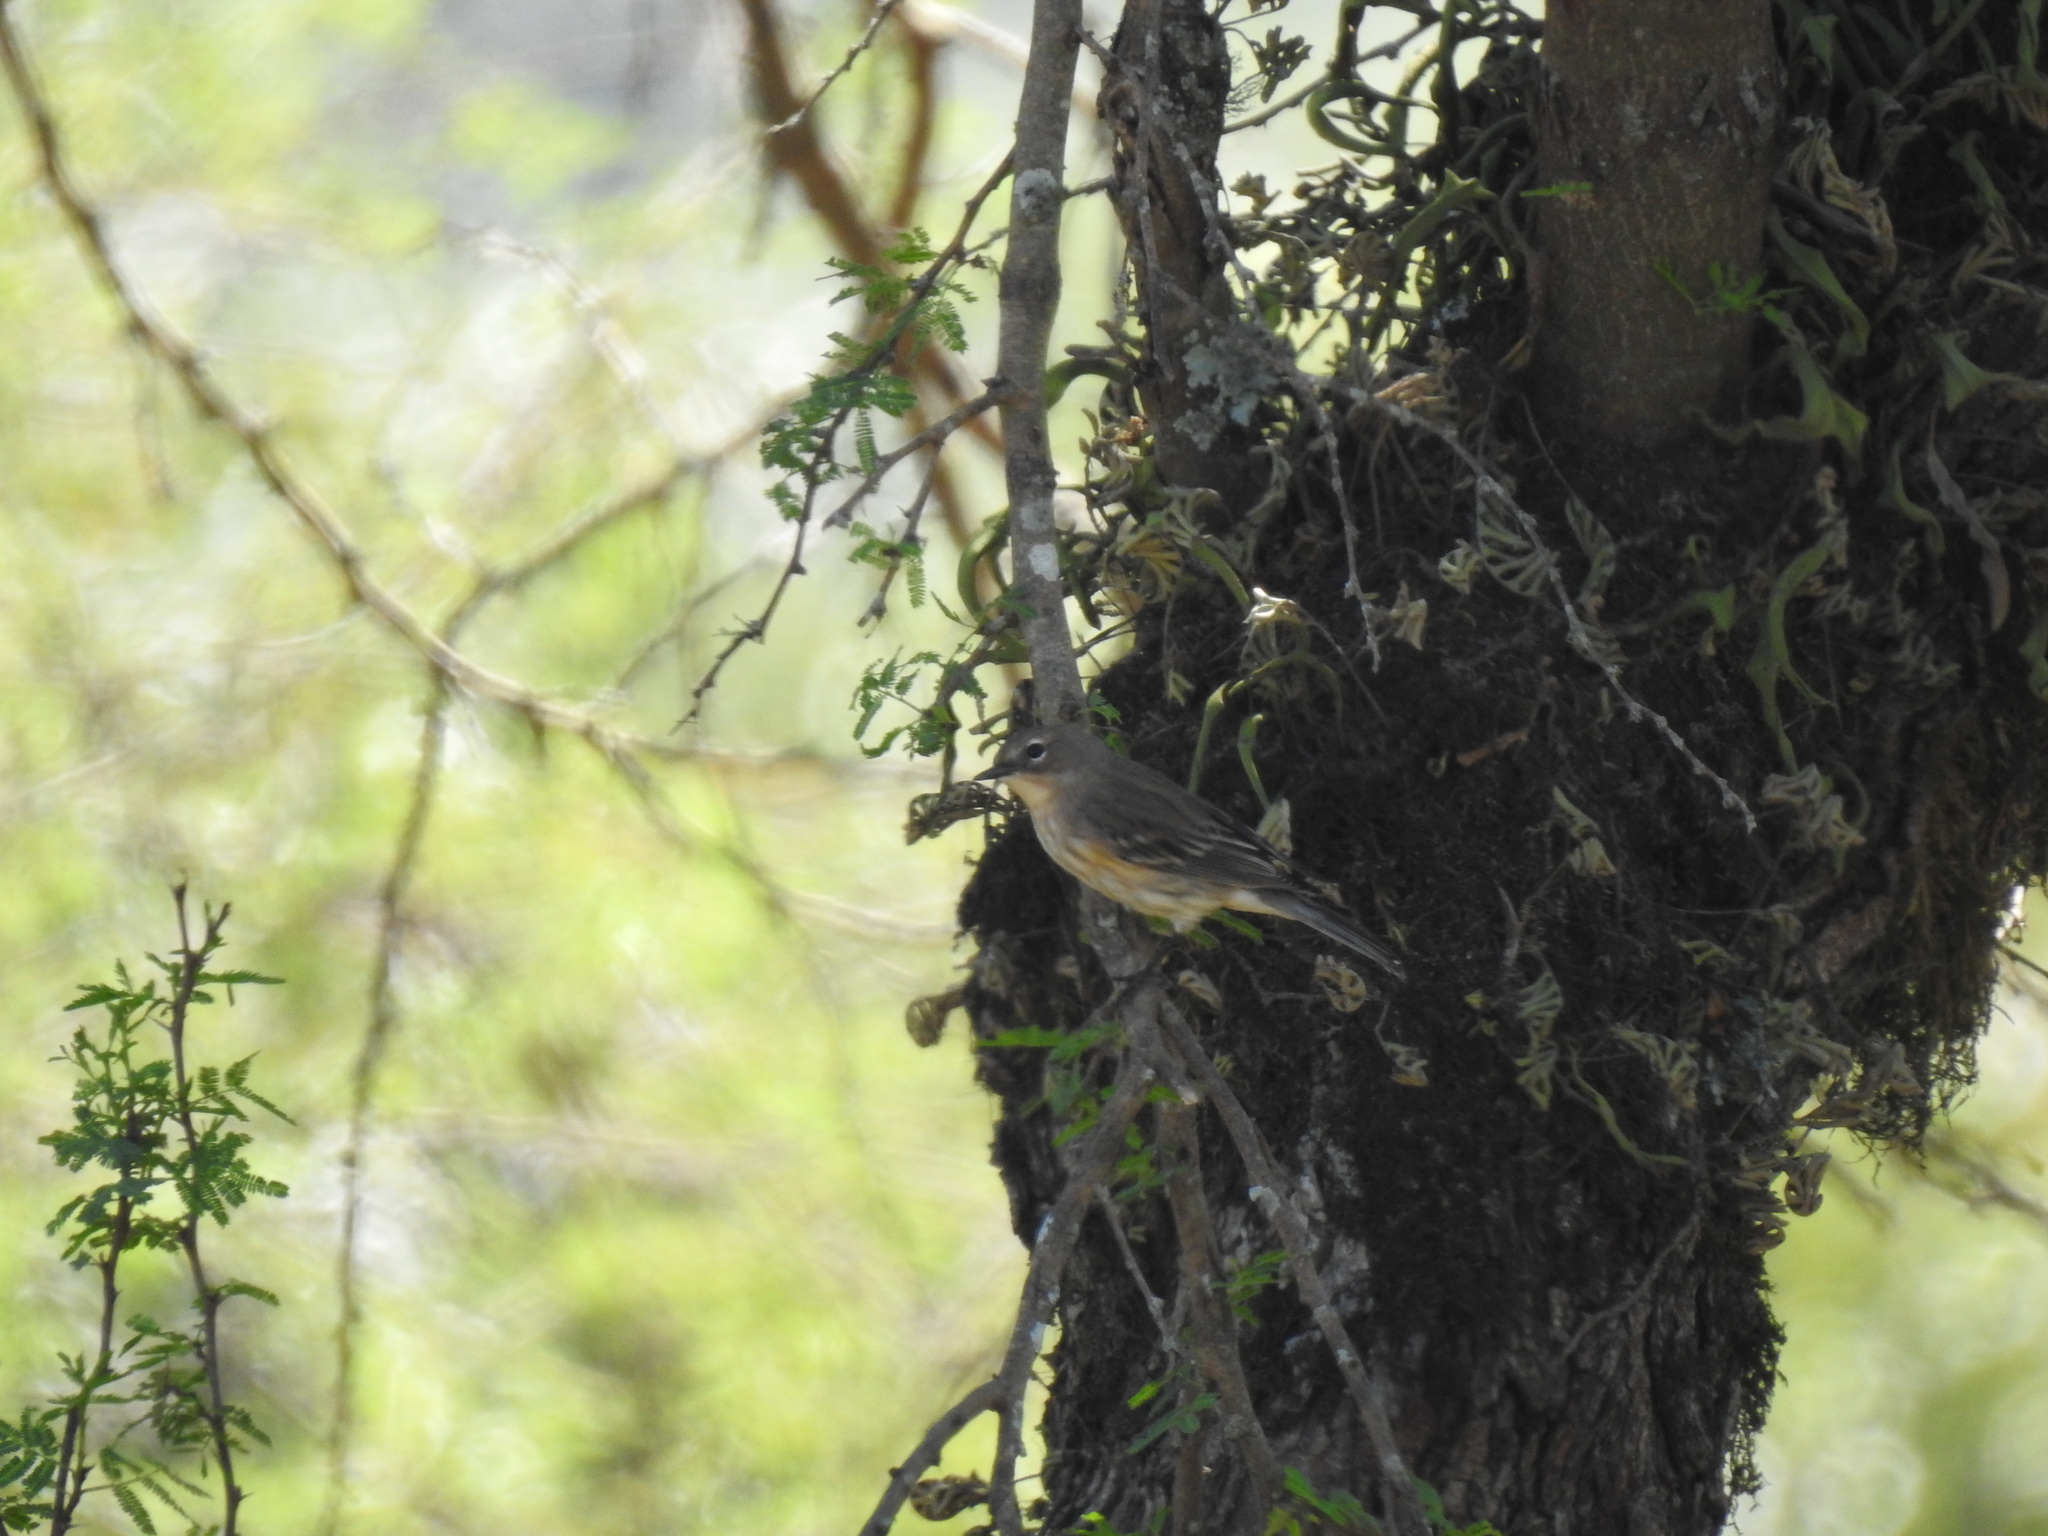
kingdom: Animalia
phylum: Chordata
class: Aves
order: Passeriformes
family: Parulidae
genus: Setophaga
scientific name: Setophaga coronata
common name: Myrtle warbler
